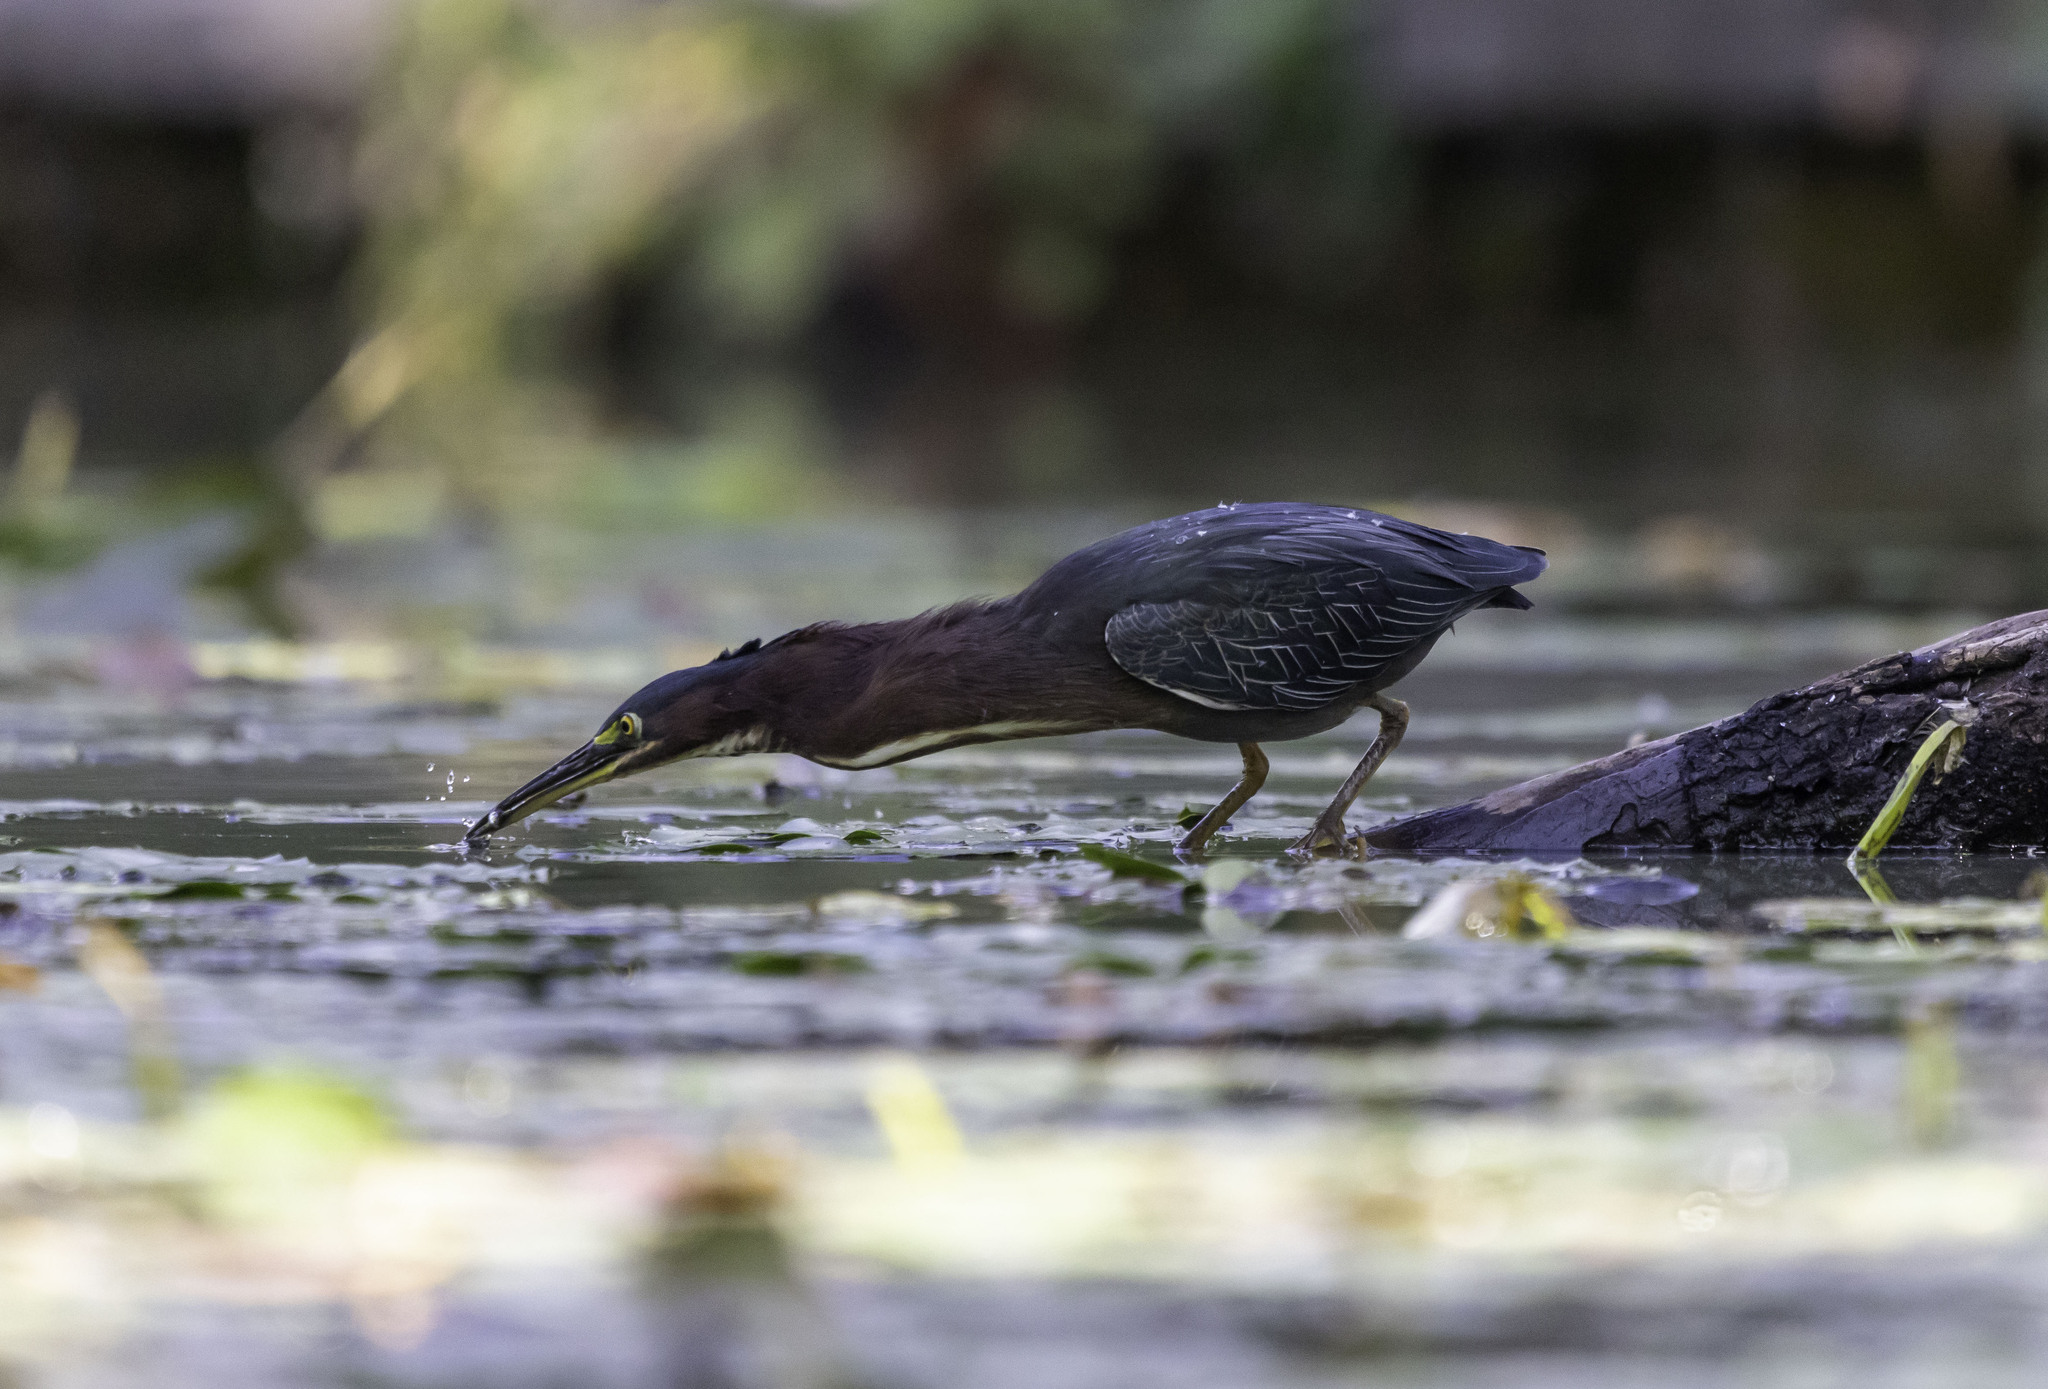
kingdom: Animalia
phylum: Chordata
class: Aves
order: Pelecaniformes
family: Ardeidae
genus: Butorides
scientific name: Butorides virescens
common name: Green heron
